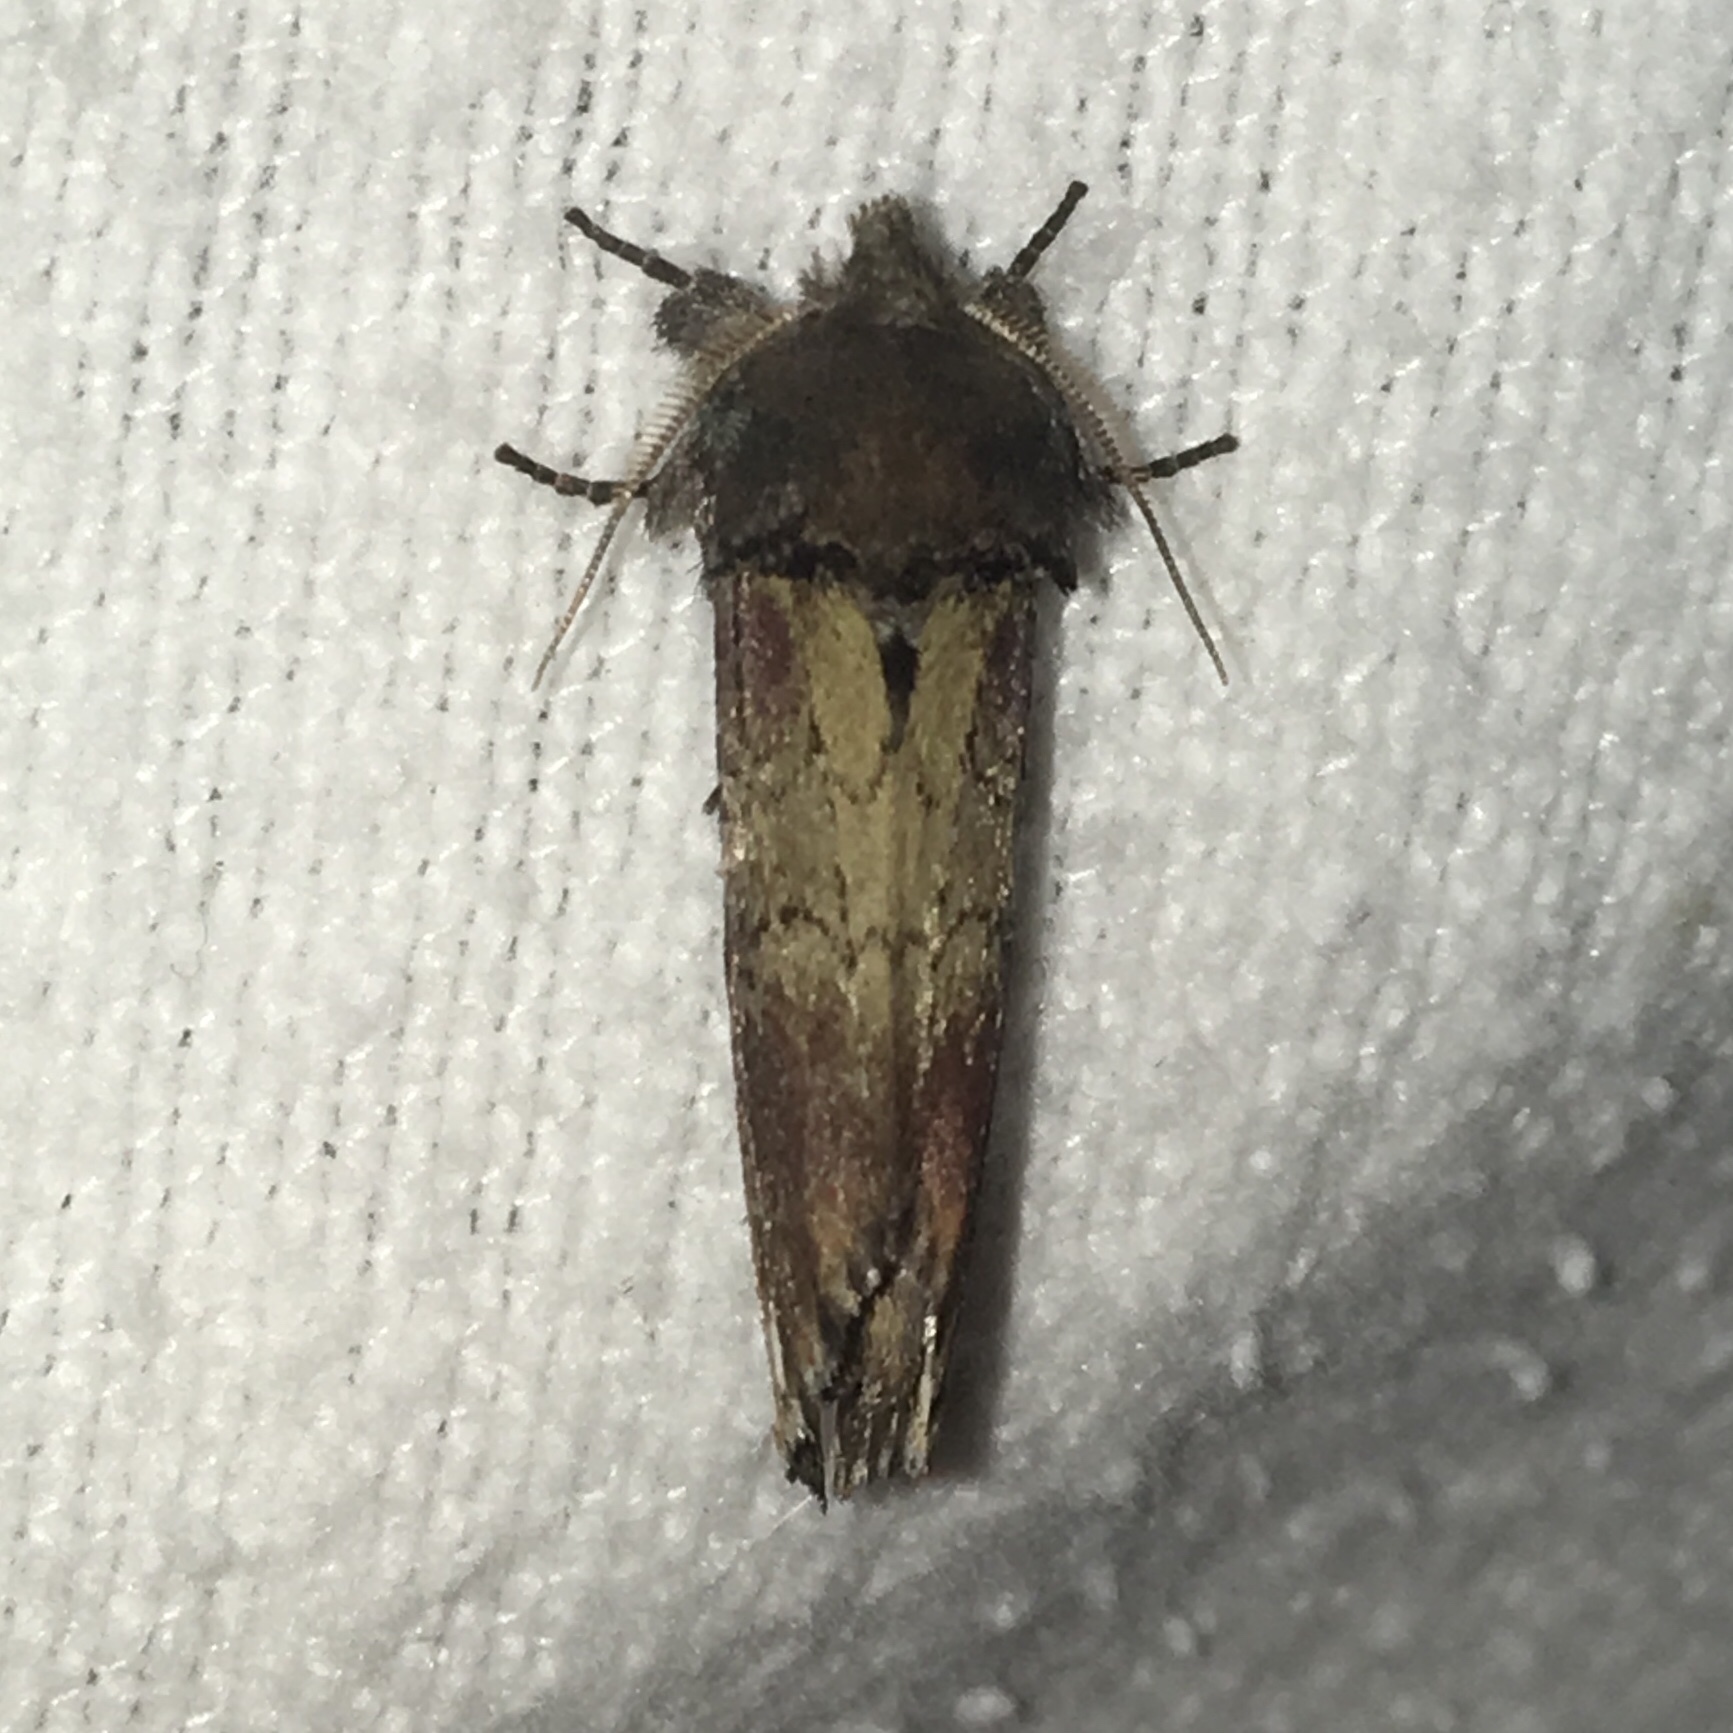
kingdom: Animalia
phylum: Arthropoda
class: Insecta
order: Lepidoptera
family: Notodontidae
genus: Schizura
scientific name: Schizura badia
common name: Chestnut schizura
